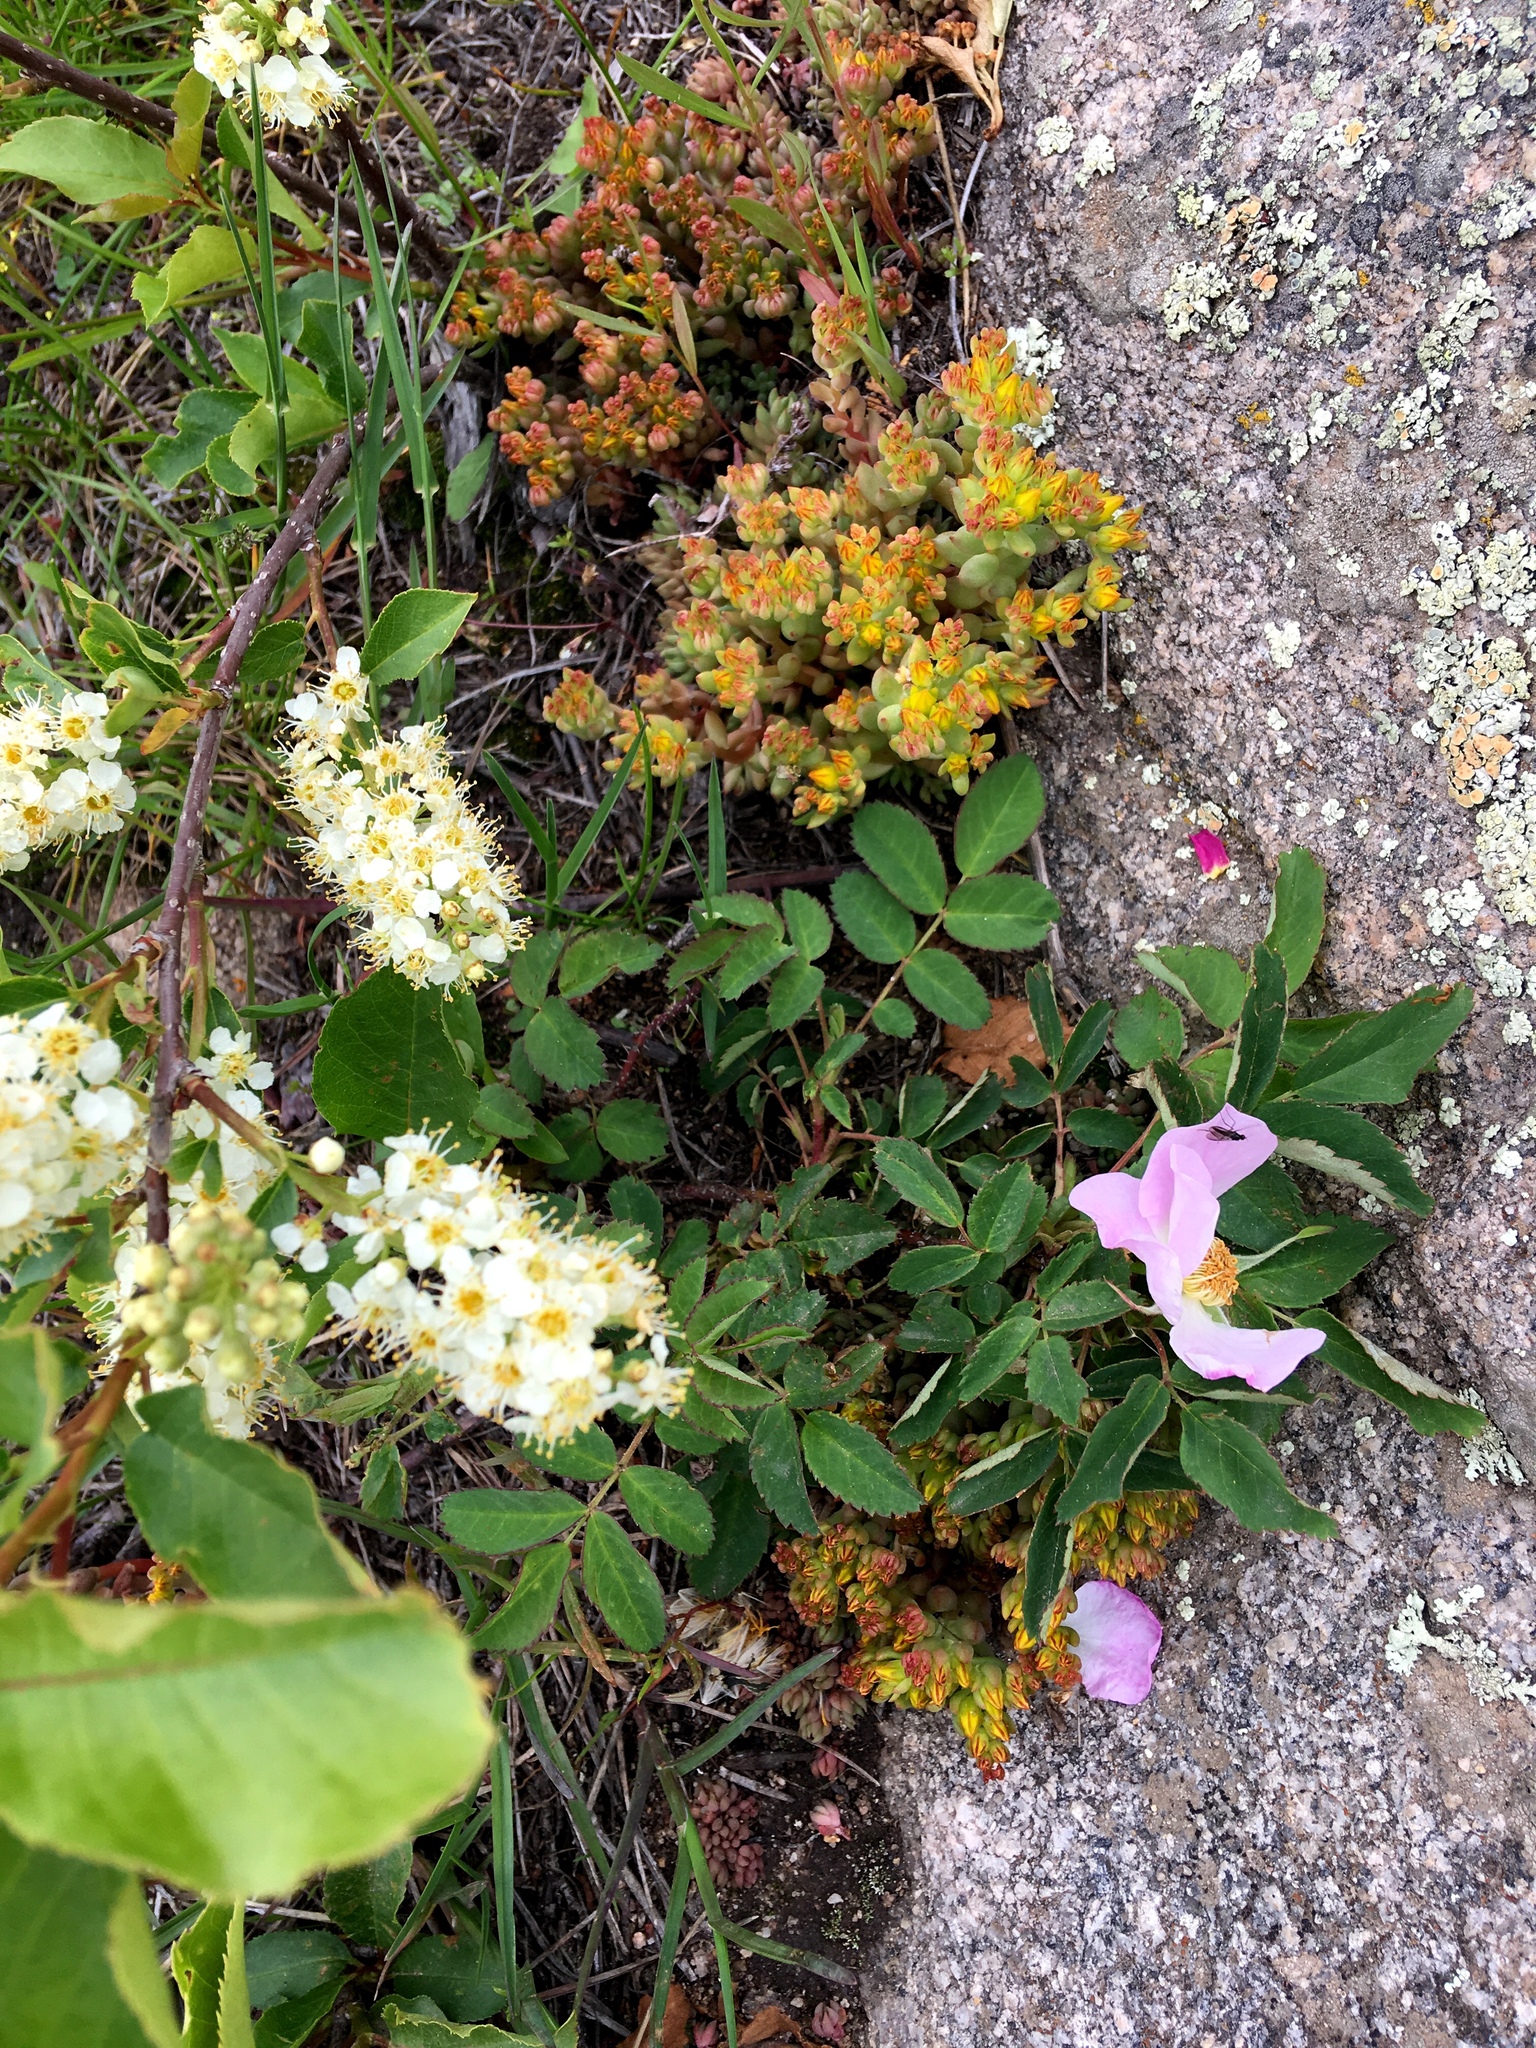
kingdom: Plantae
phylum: Tracheophyta
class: Magnoliopsida
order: Saxifragales
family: Crassulaceae
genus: Sedum
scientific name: Sedum lanceolatum
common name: Common stonecrop
